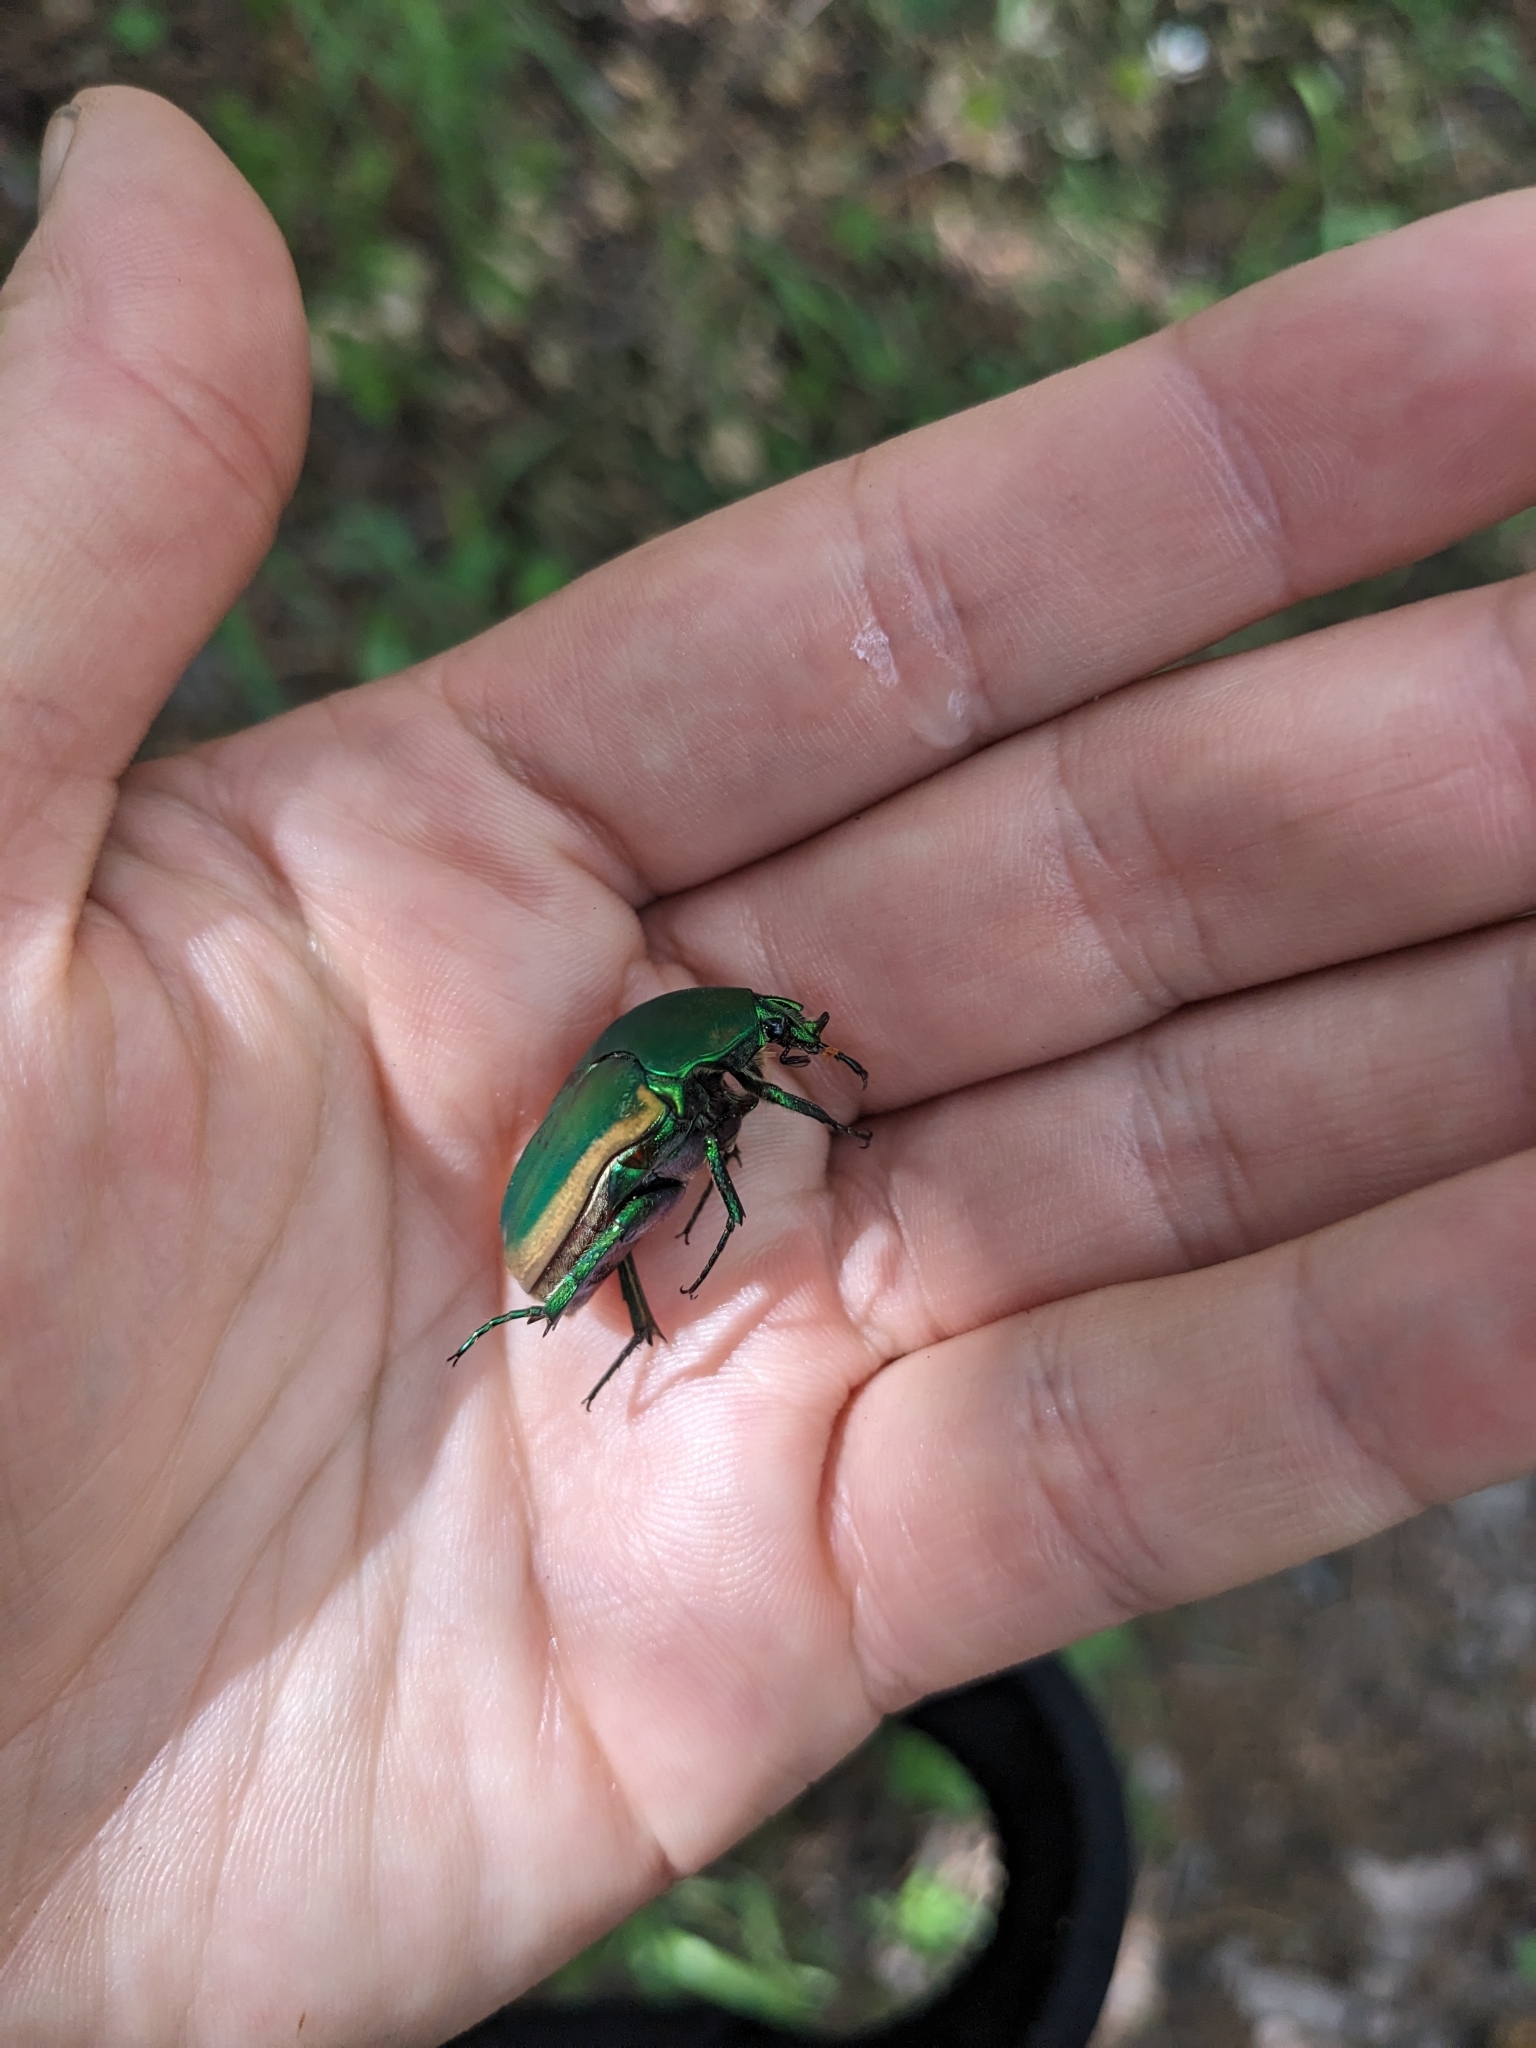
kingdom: Animalia
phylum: Arthropoda
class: Insecta
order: Coleoptera
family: Scarabaeidae
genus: Cotinis
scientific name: Cotinis mutabilis
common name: Figeater beetle
